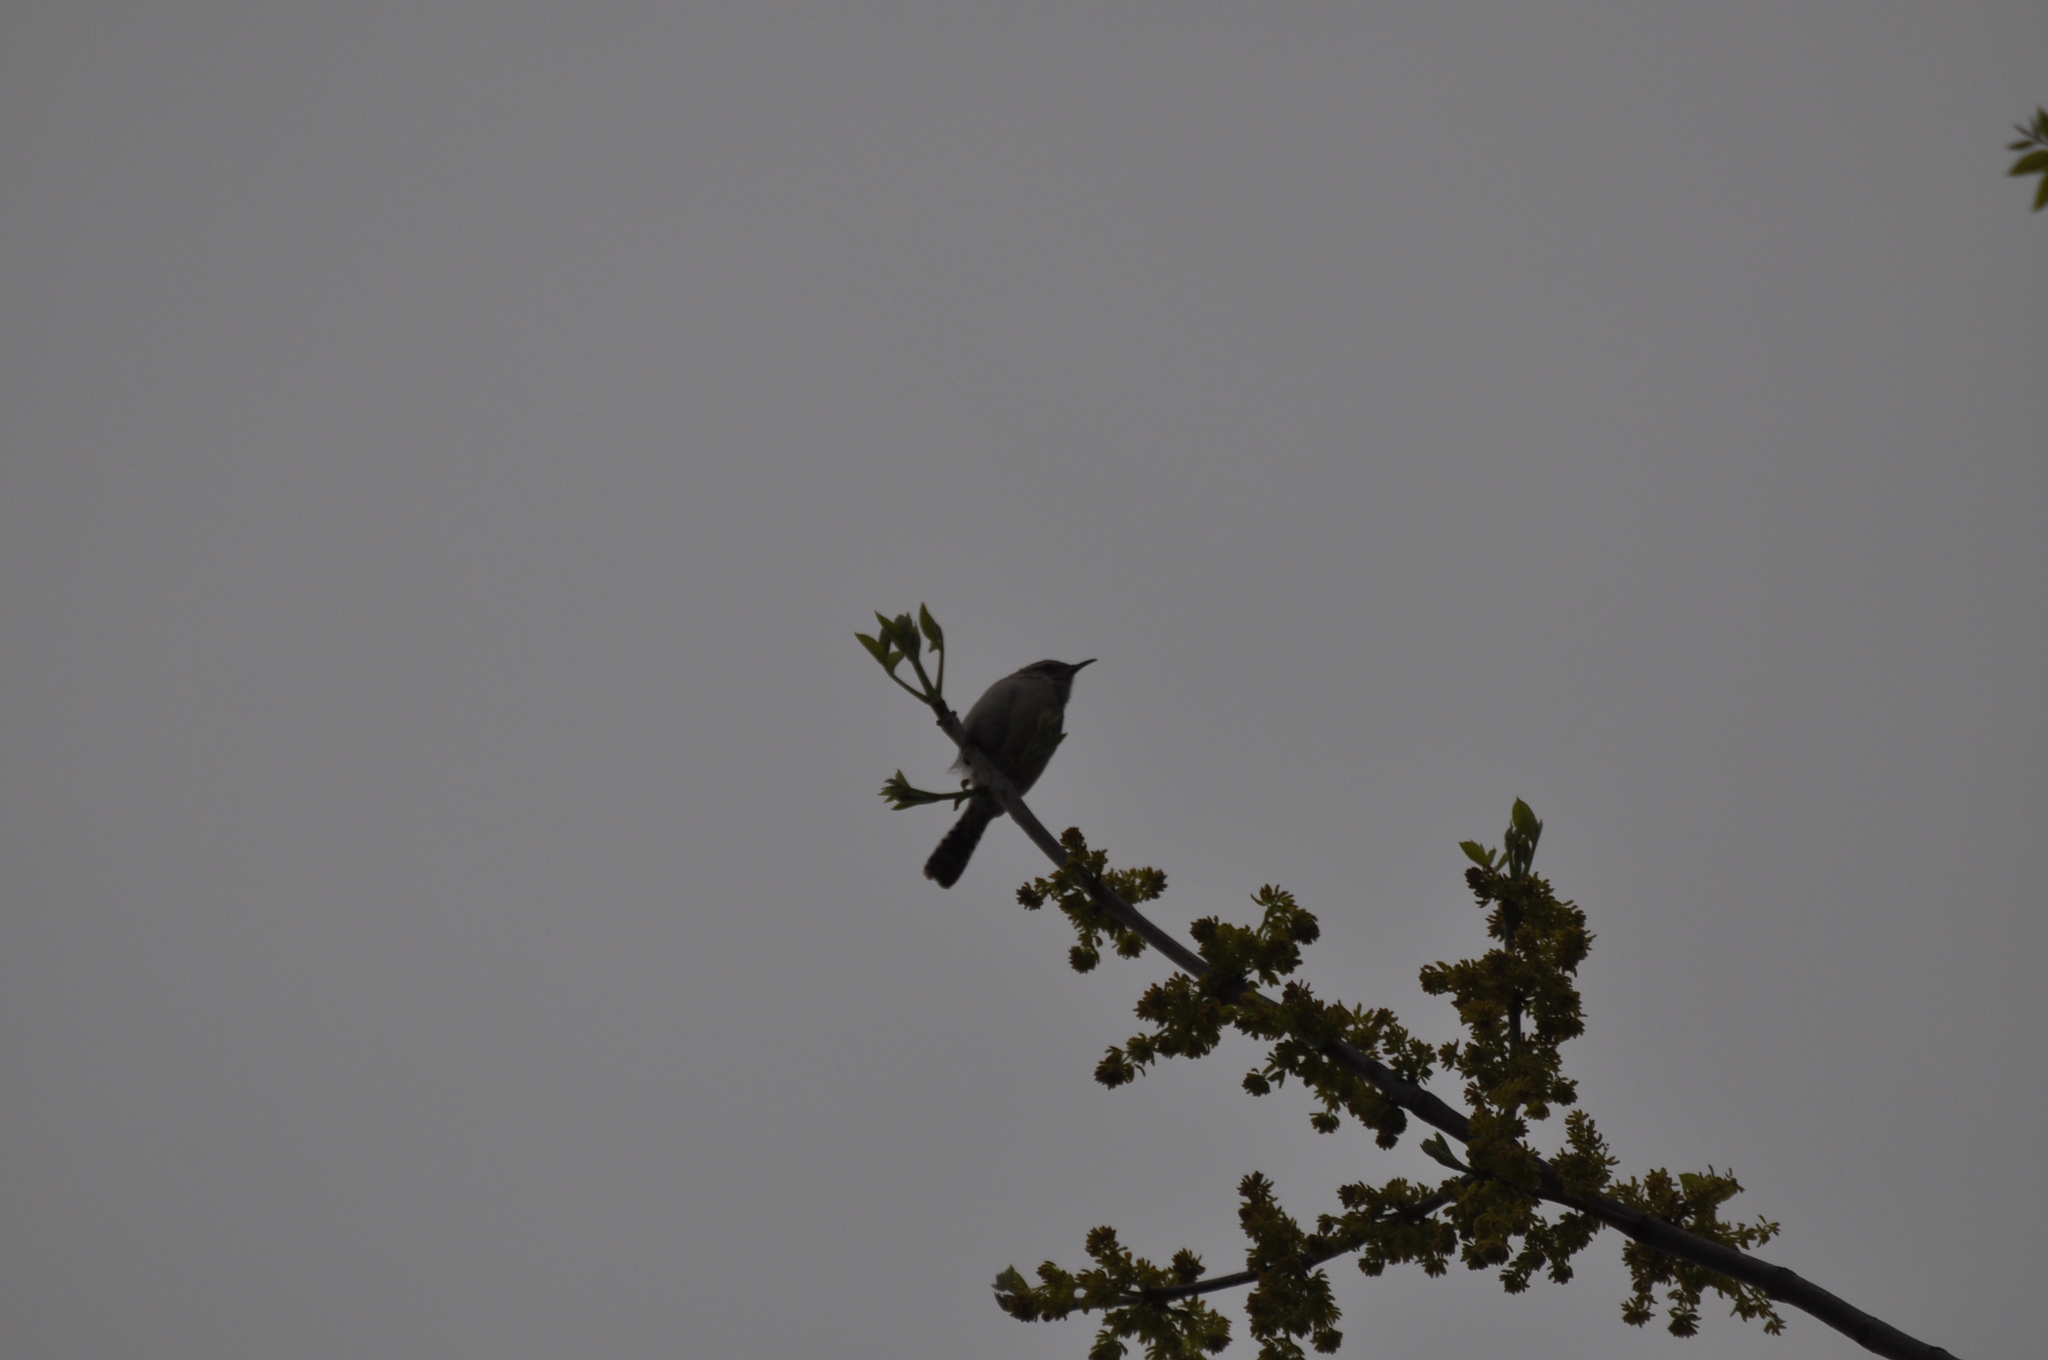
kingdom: Animalia
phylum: Chordata
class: Aves
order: Passeriformes
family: Troglodytidae
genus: Thryomanes
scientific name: Thryomanes bewickii
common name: Bewick's wren
